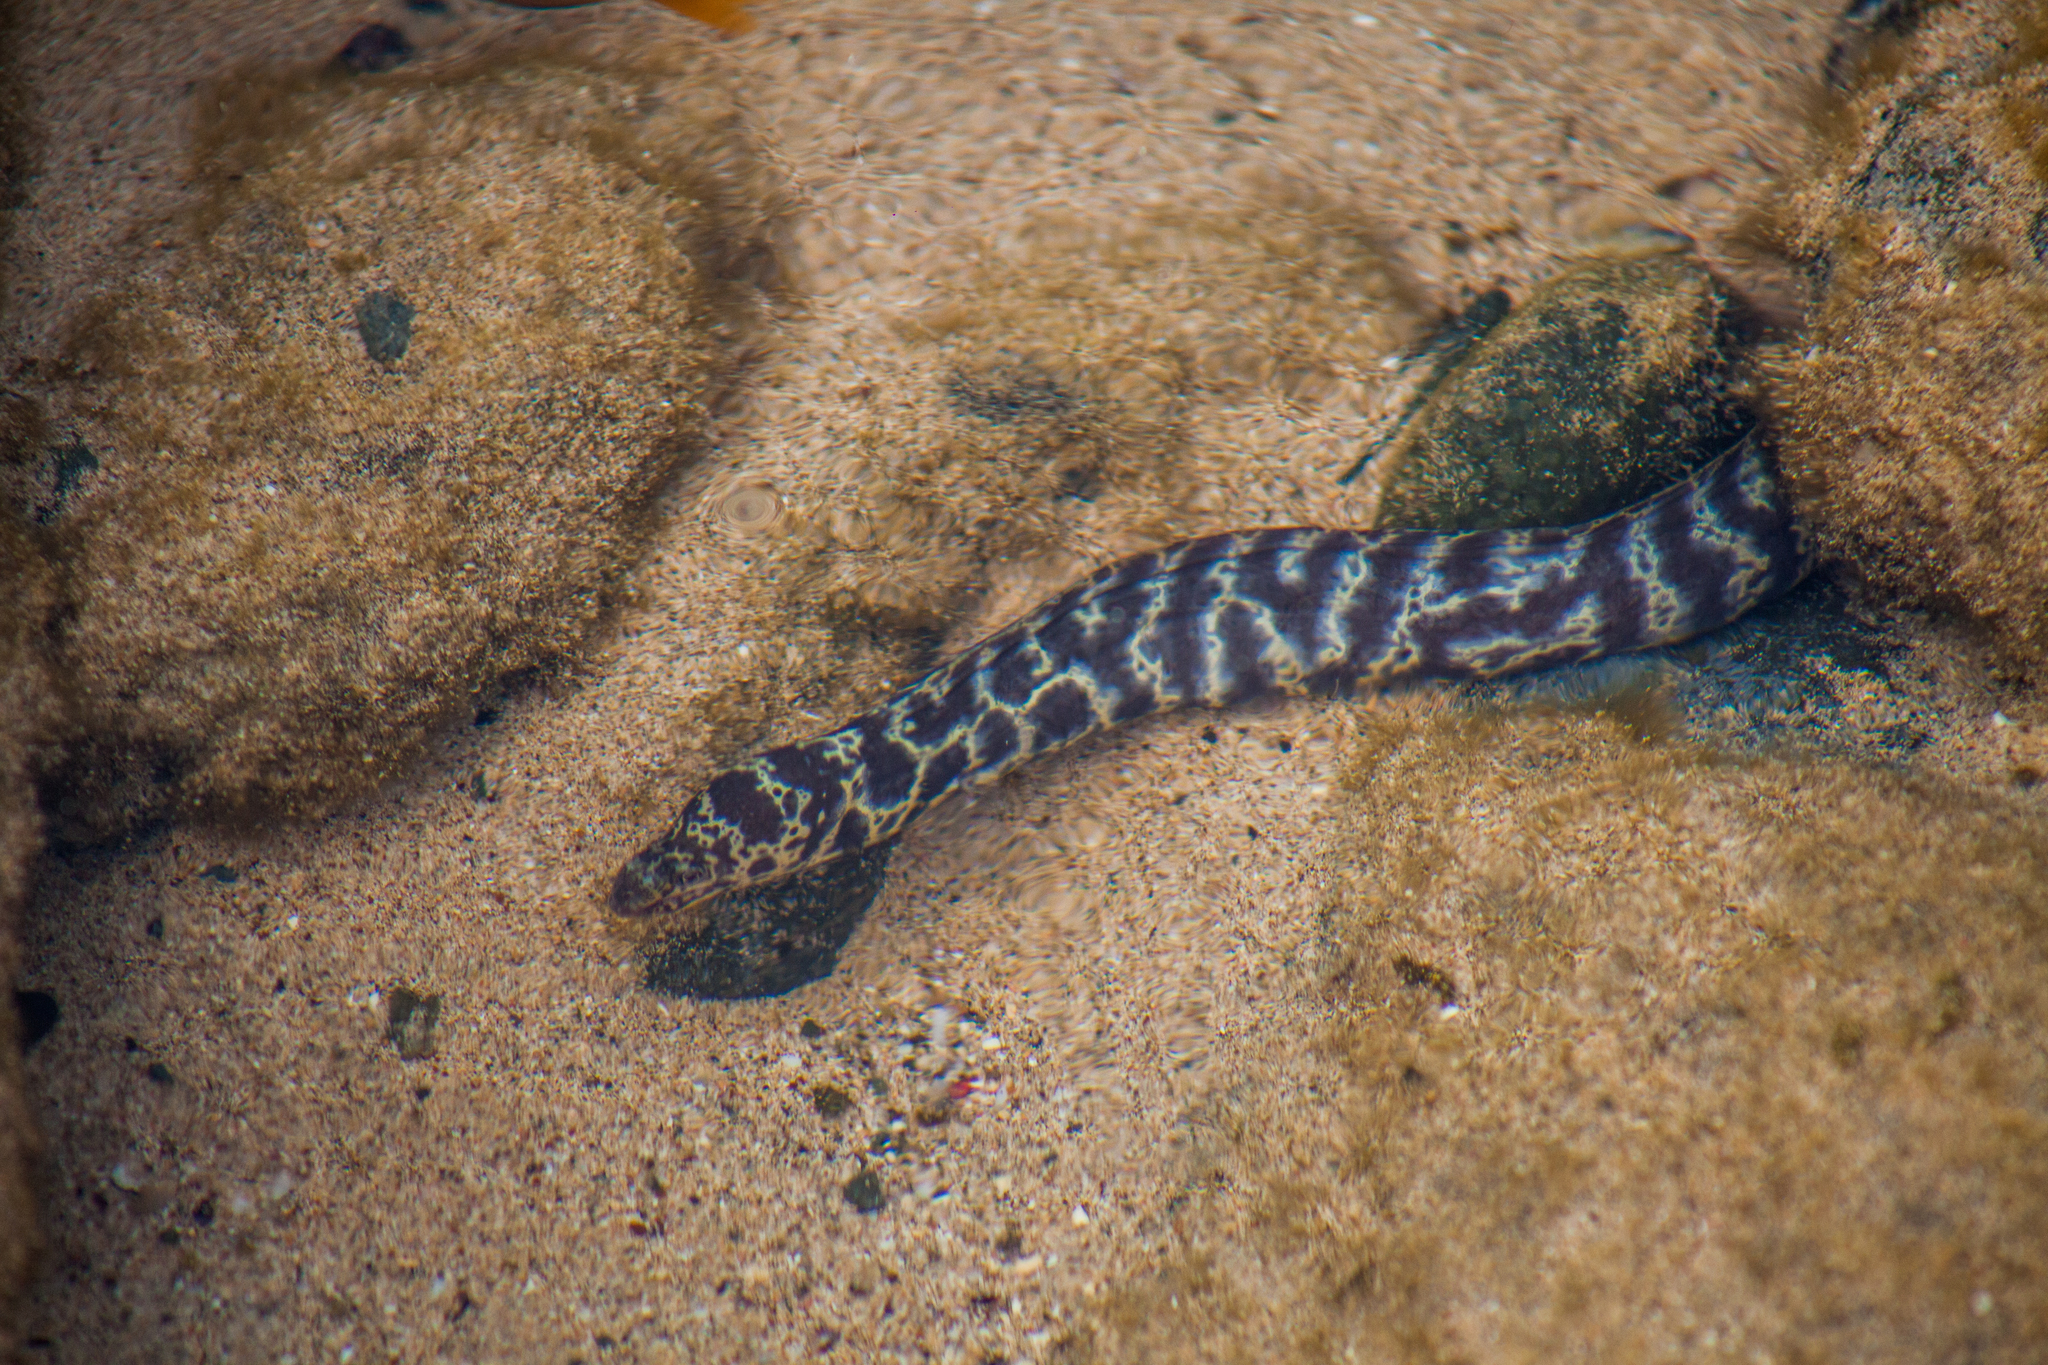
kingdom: Animalia
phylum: Chordata
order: Anguilliformes
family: Muraenidae
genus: Echidna
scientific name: Echidna catenata
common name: Chain moray
